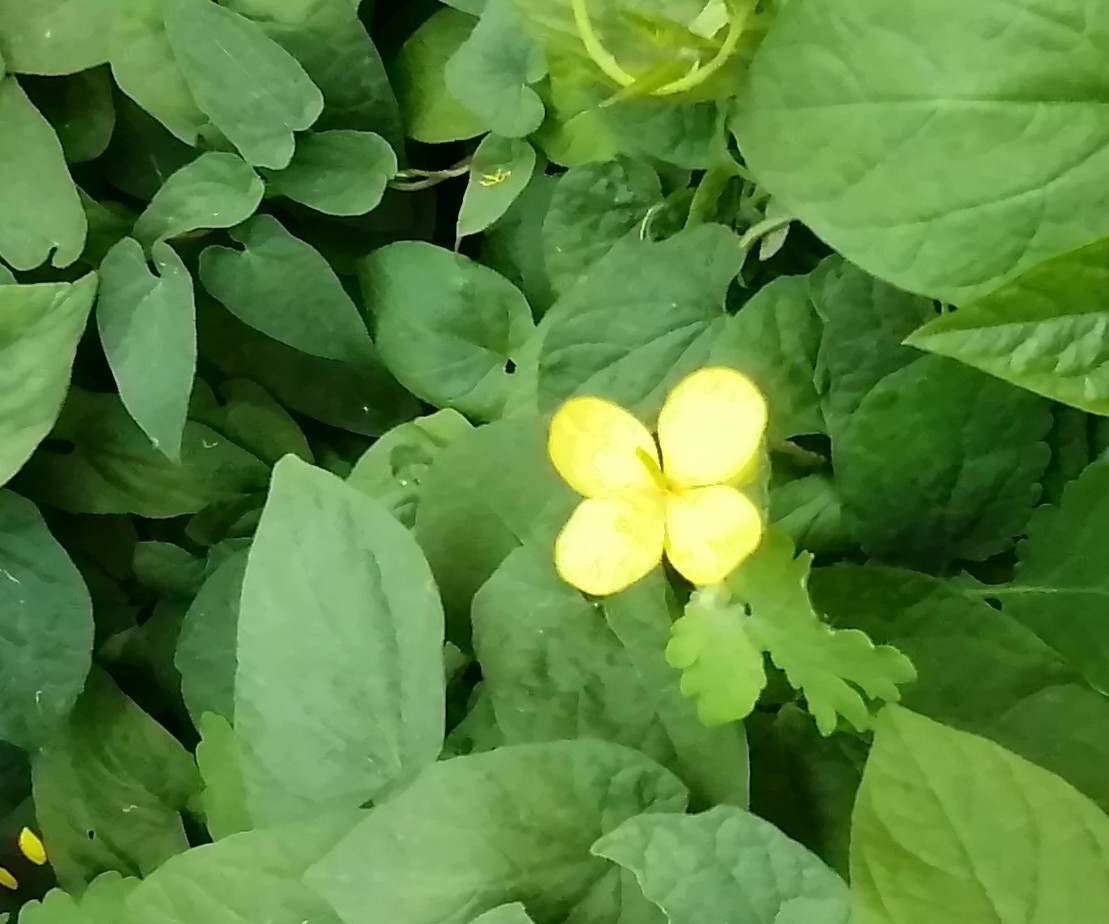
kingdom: Plantae
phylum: Tracheophyta
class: Magnoliopsida
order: Ranunculales
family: Papaveraceae
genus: Chelidonium
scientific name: Chelidonium majus
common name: Greater celandine
